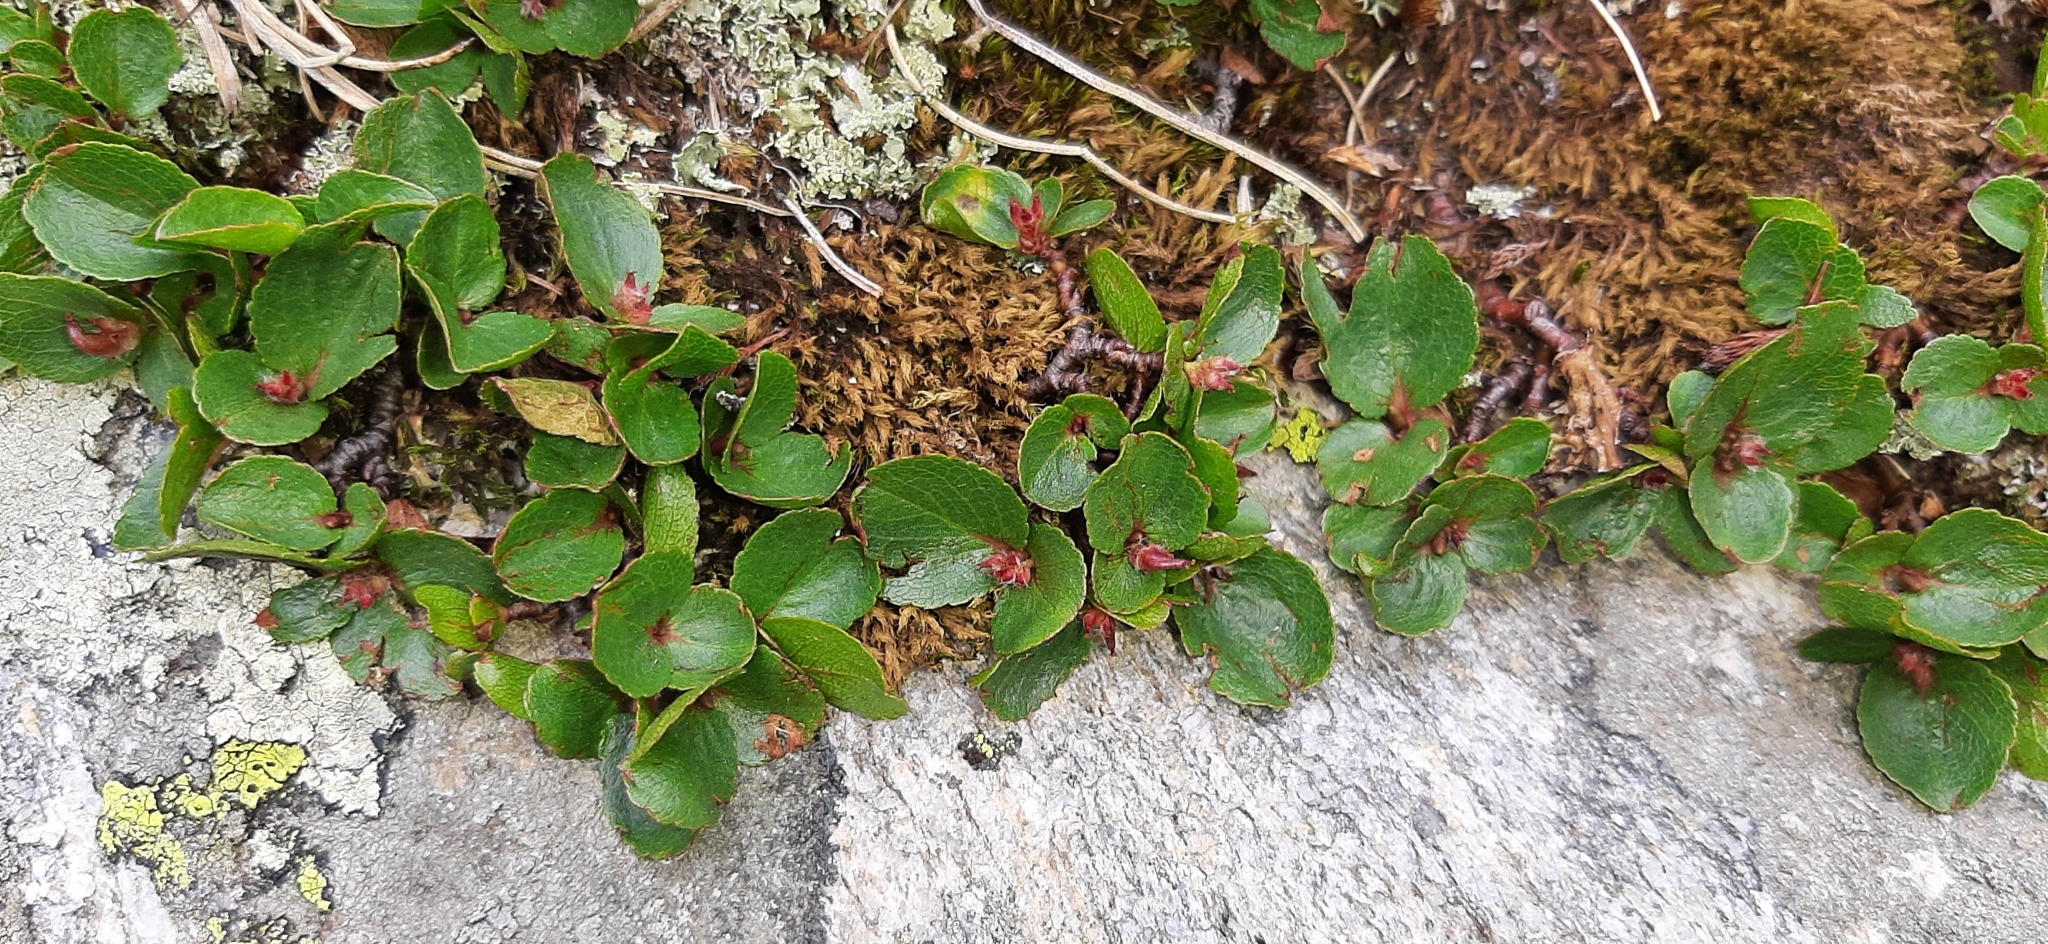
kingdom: Plantae
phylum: Tracheophyta
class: Magnoliopsida
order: Malpighiales
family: Salicaceae
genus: Salix
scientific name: Salix herbacea
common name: Dwarf willow
